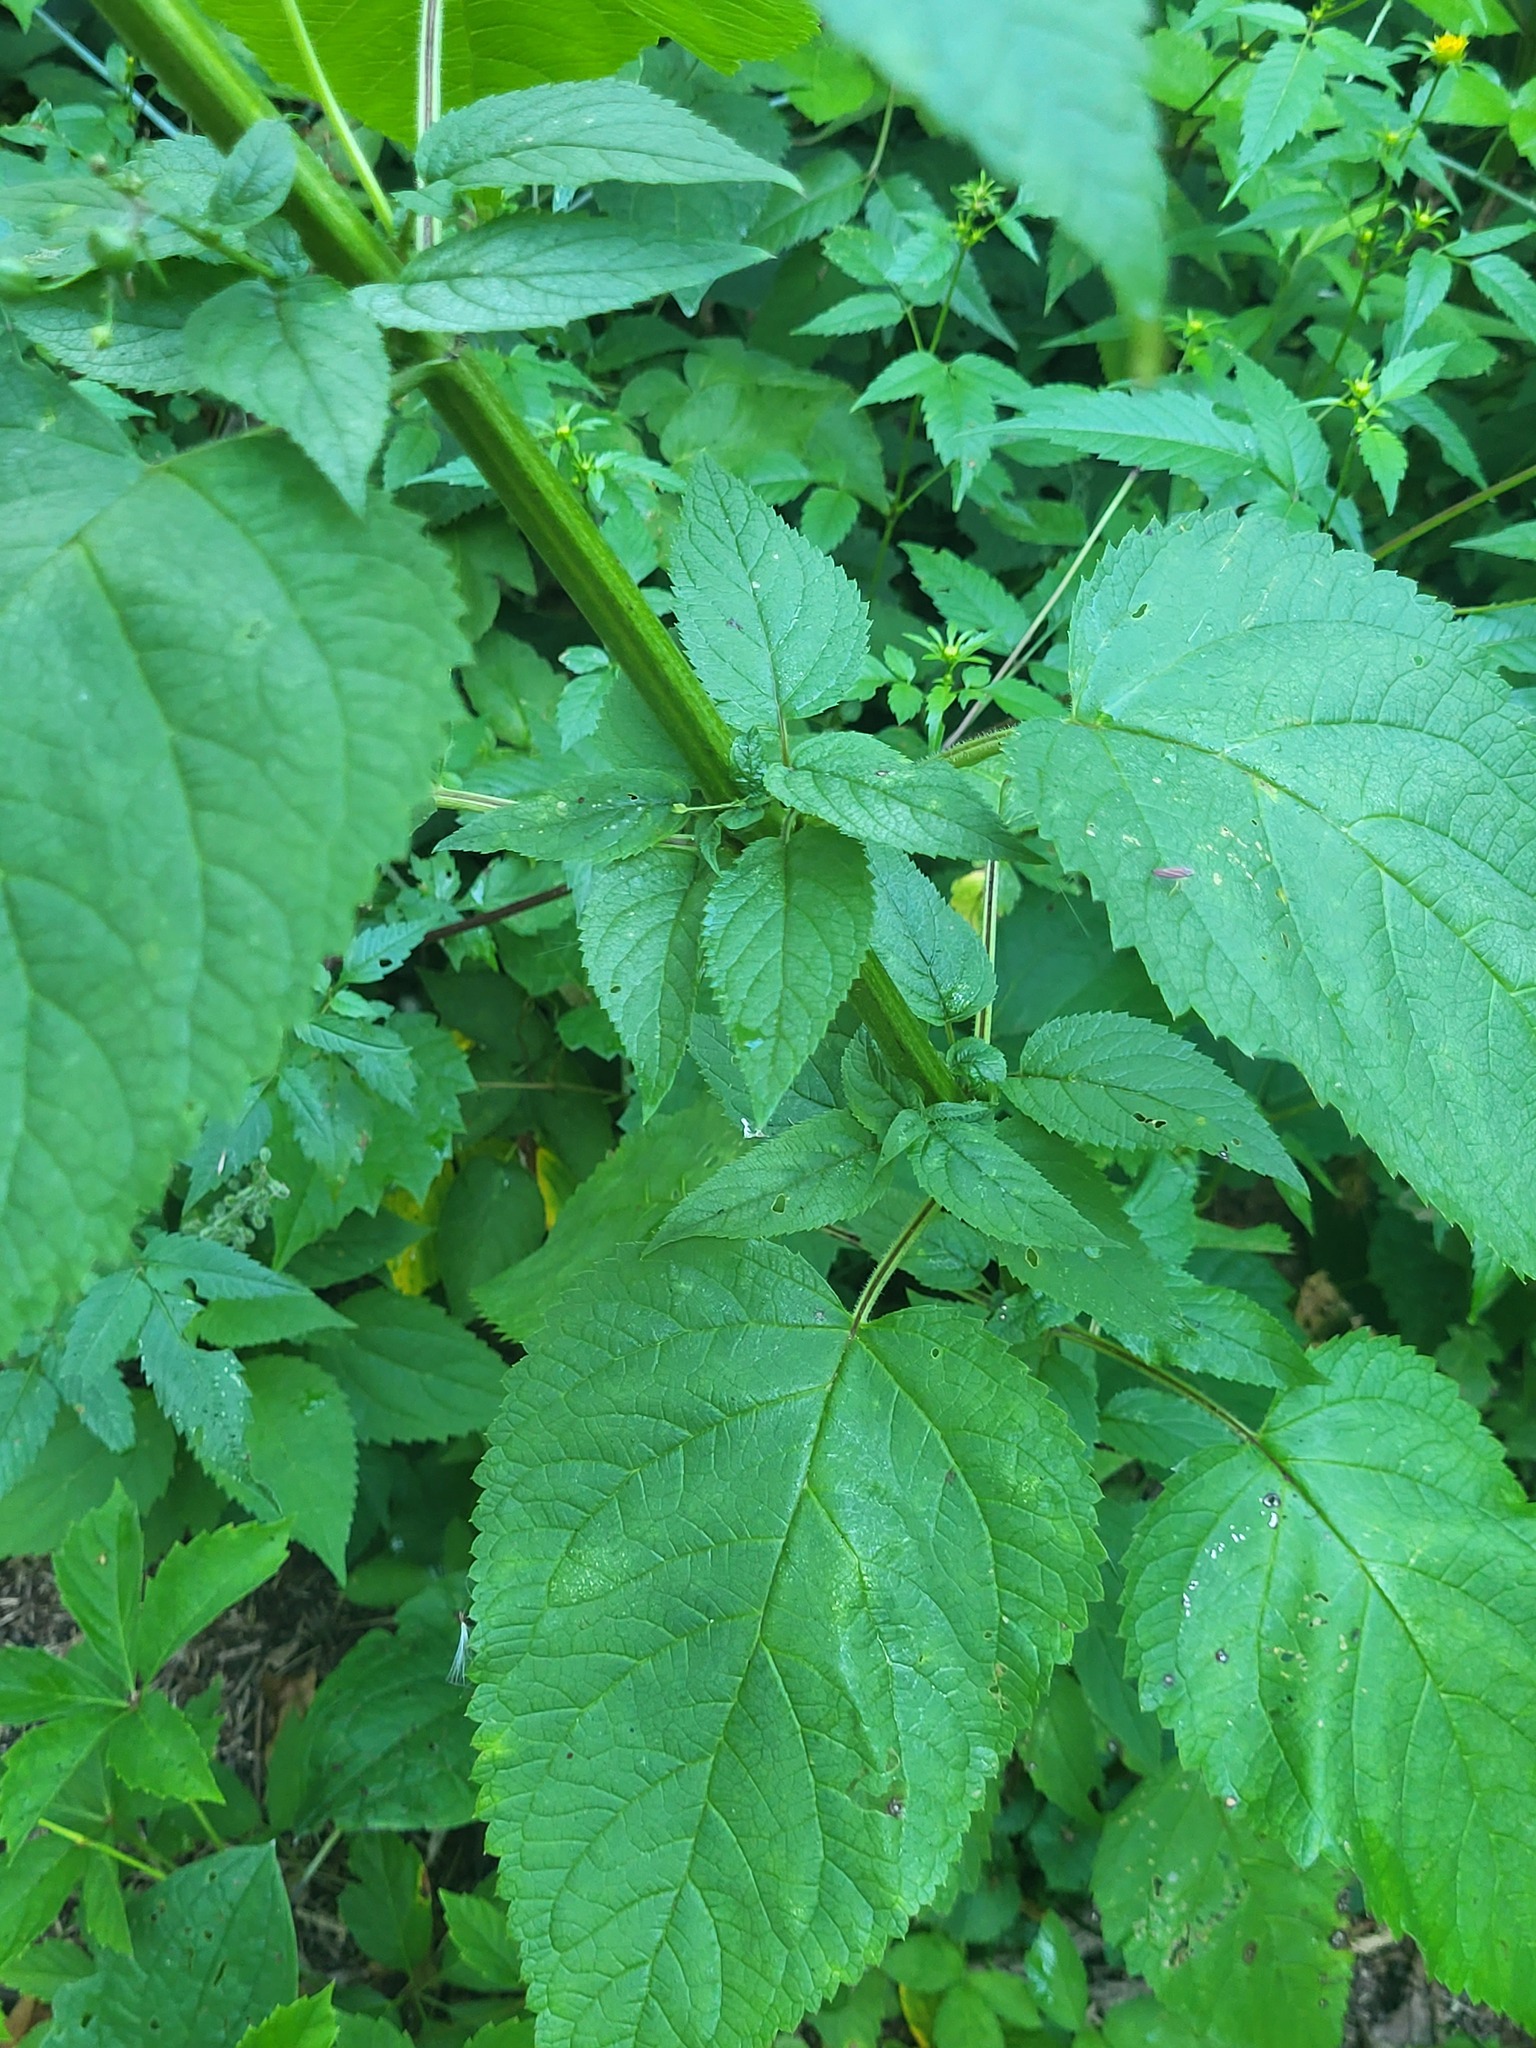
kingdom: Plantae
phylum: Tracheophyta
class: Magnoliopsida
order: Lamiales
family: Scrophulariaceae
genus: Scrophularia
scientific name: Scrophularia marilandica
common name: Eastern figwort
